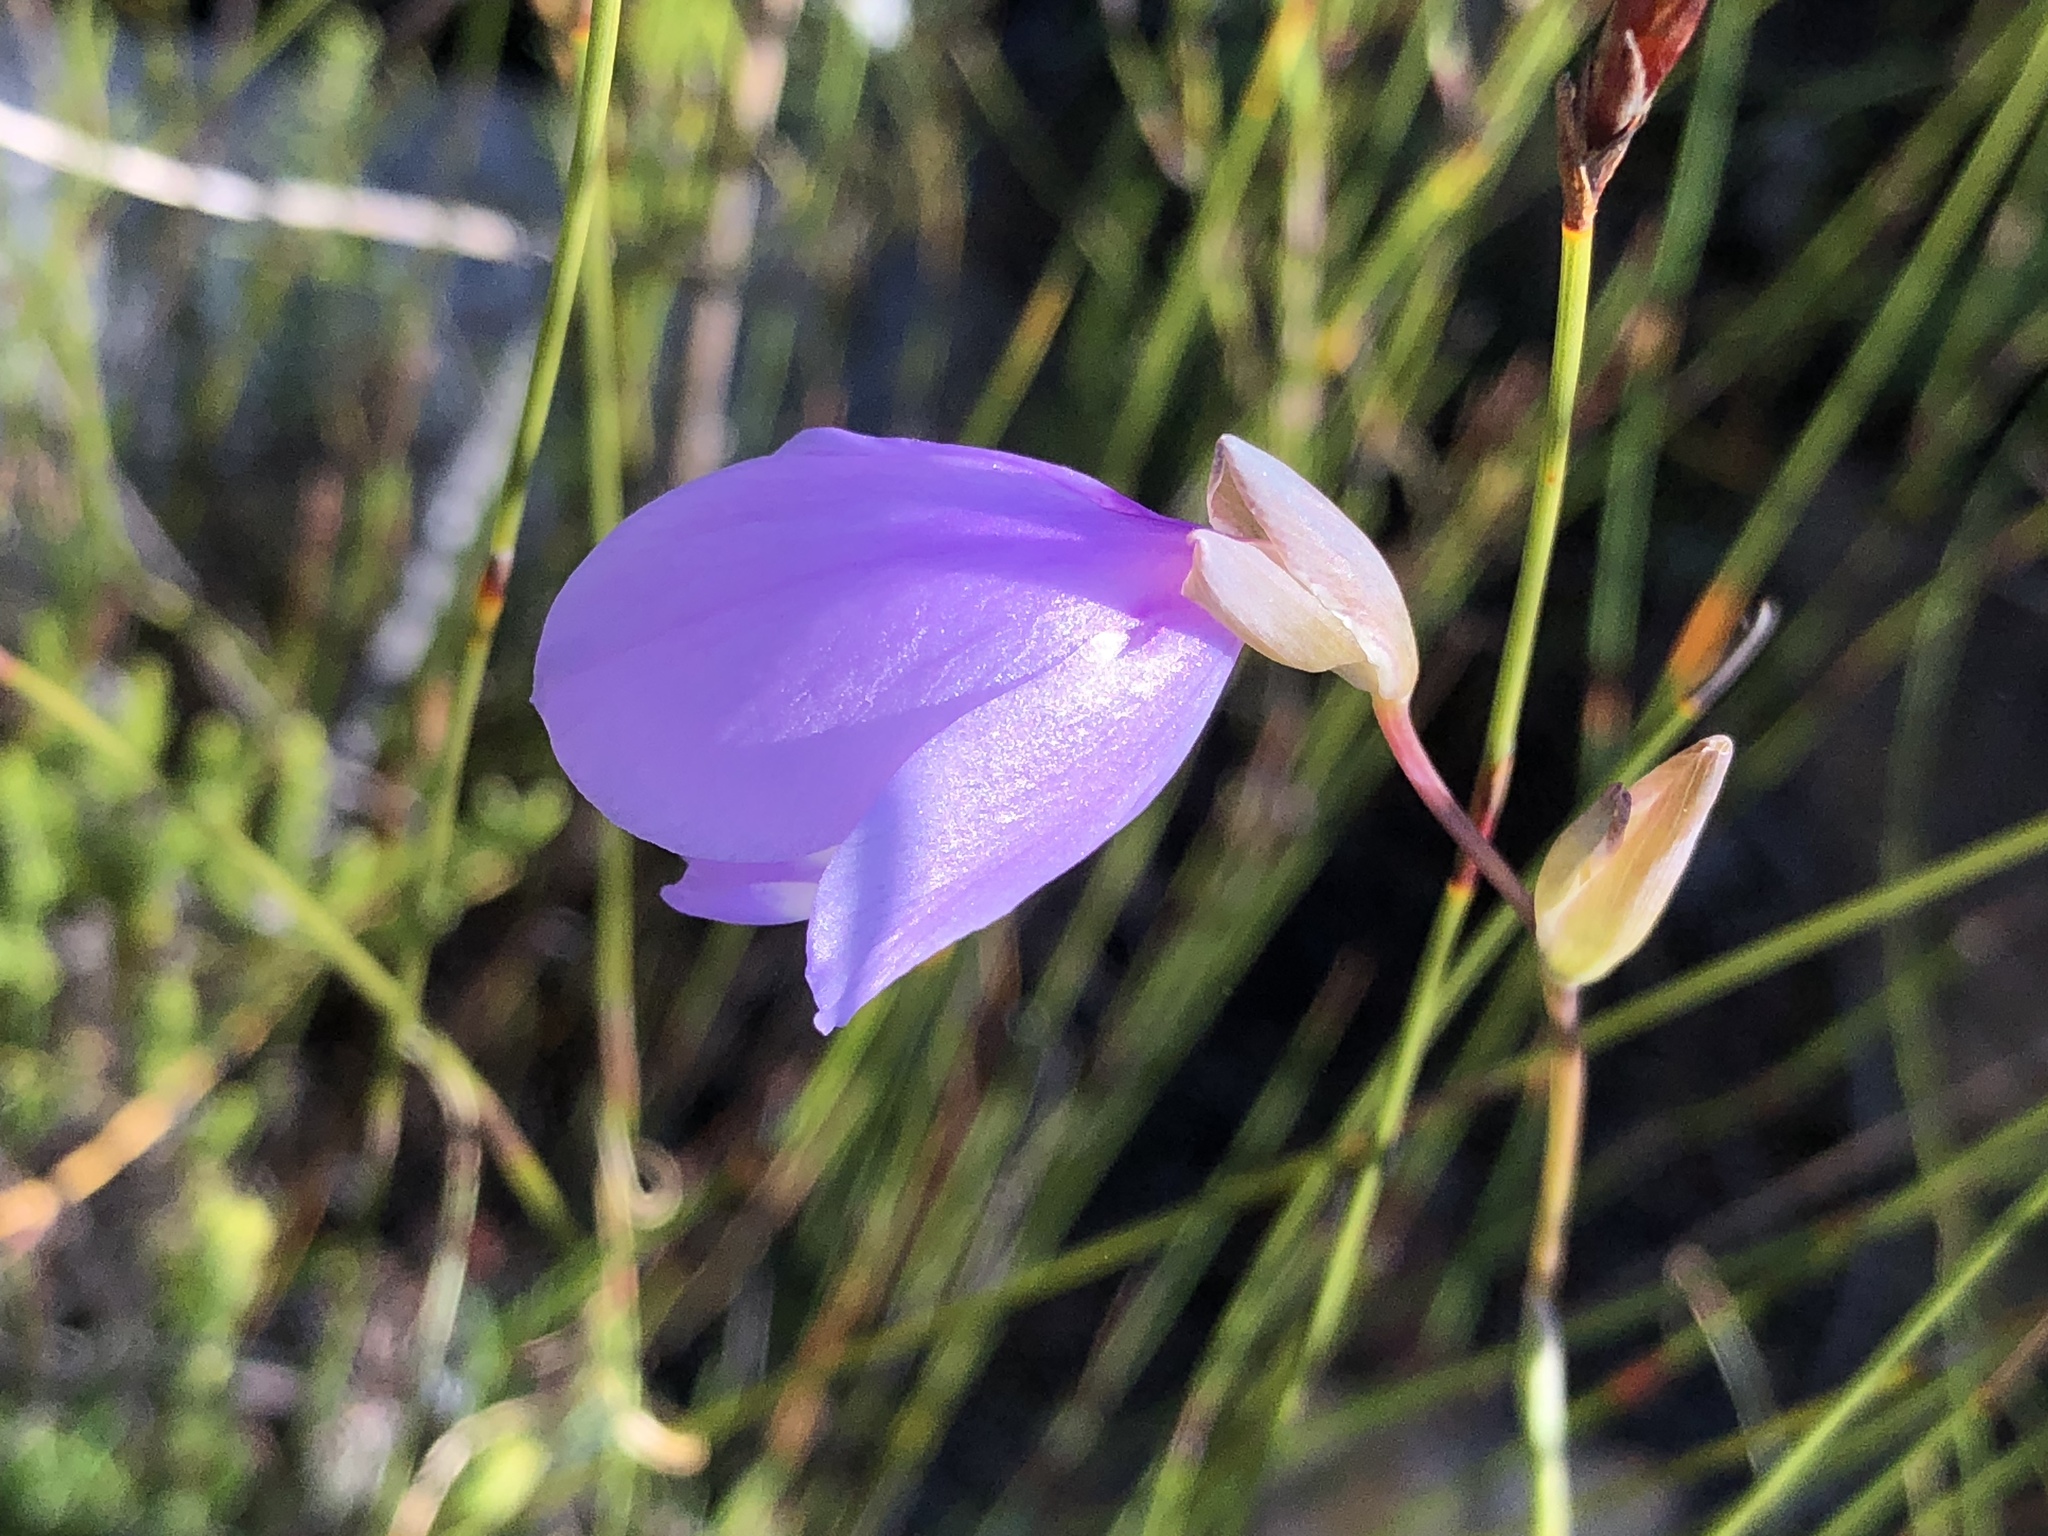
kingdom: Plantae
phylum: Tracheophyta
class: Liliopsida
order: Asparagales
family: Iridaceae
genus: Gladiolus
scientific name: Gladiolus rogersii
